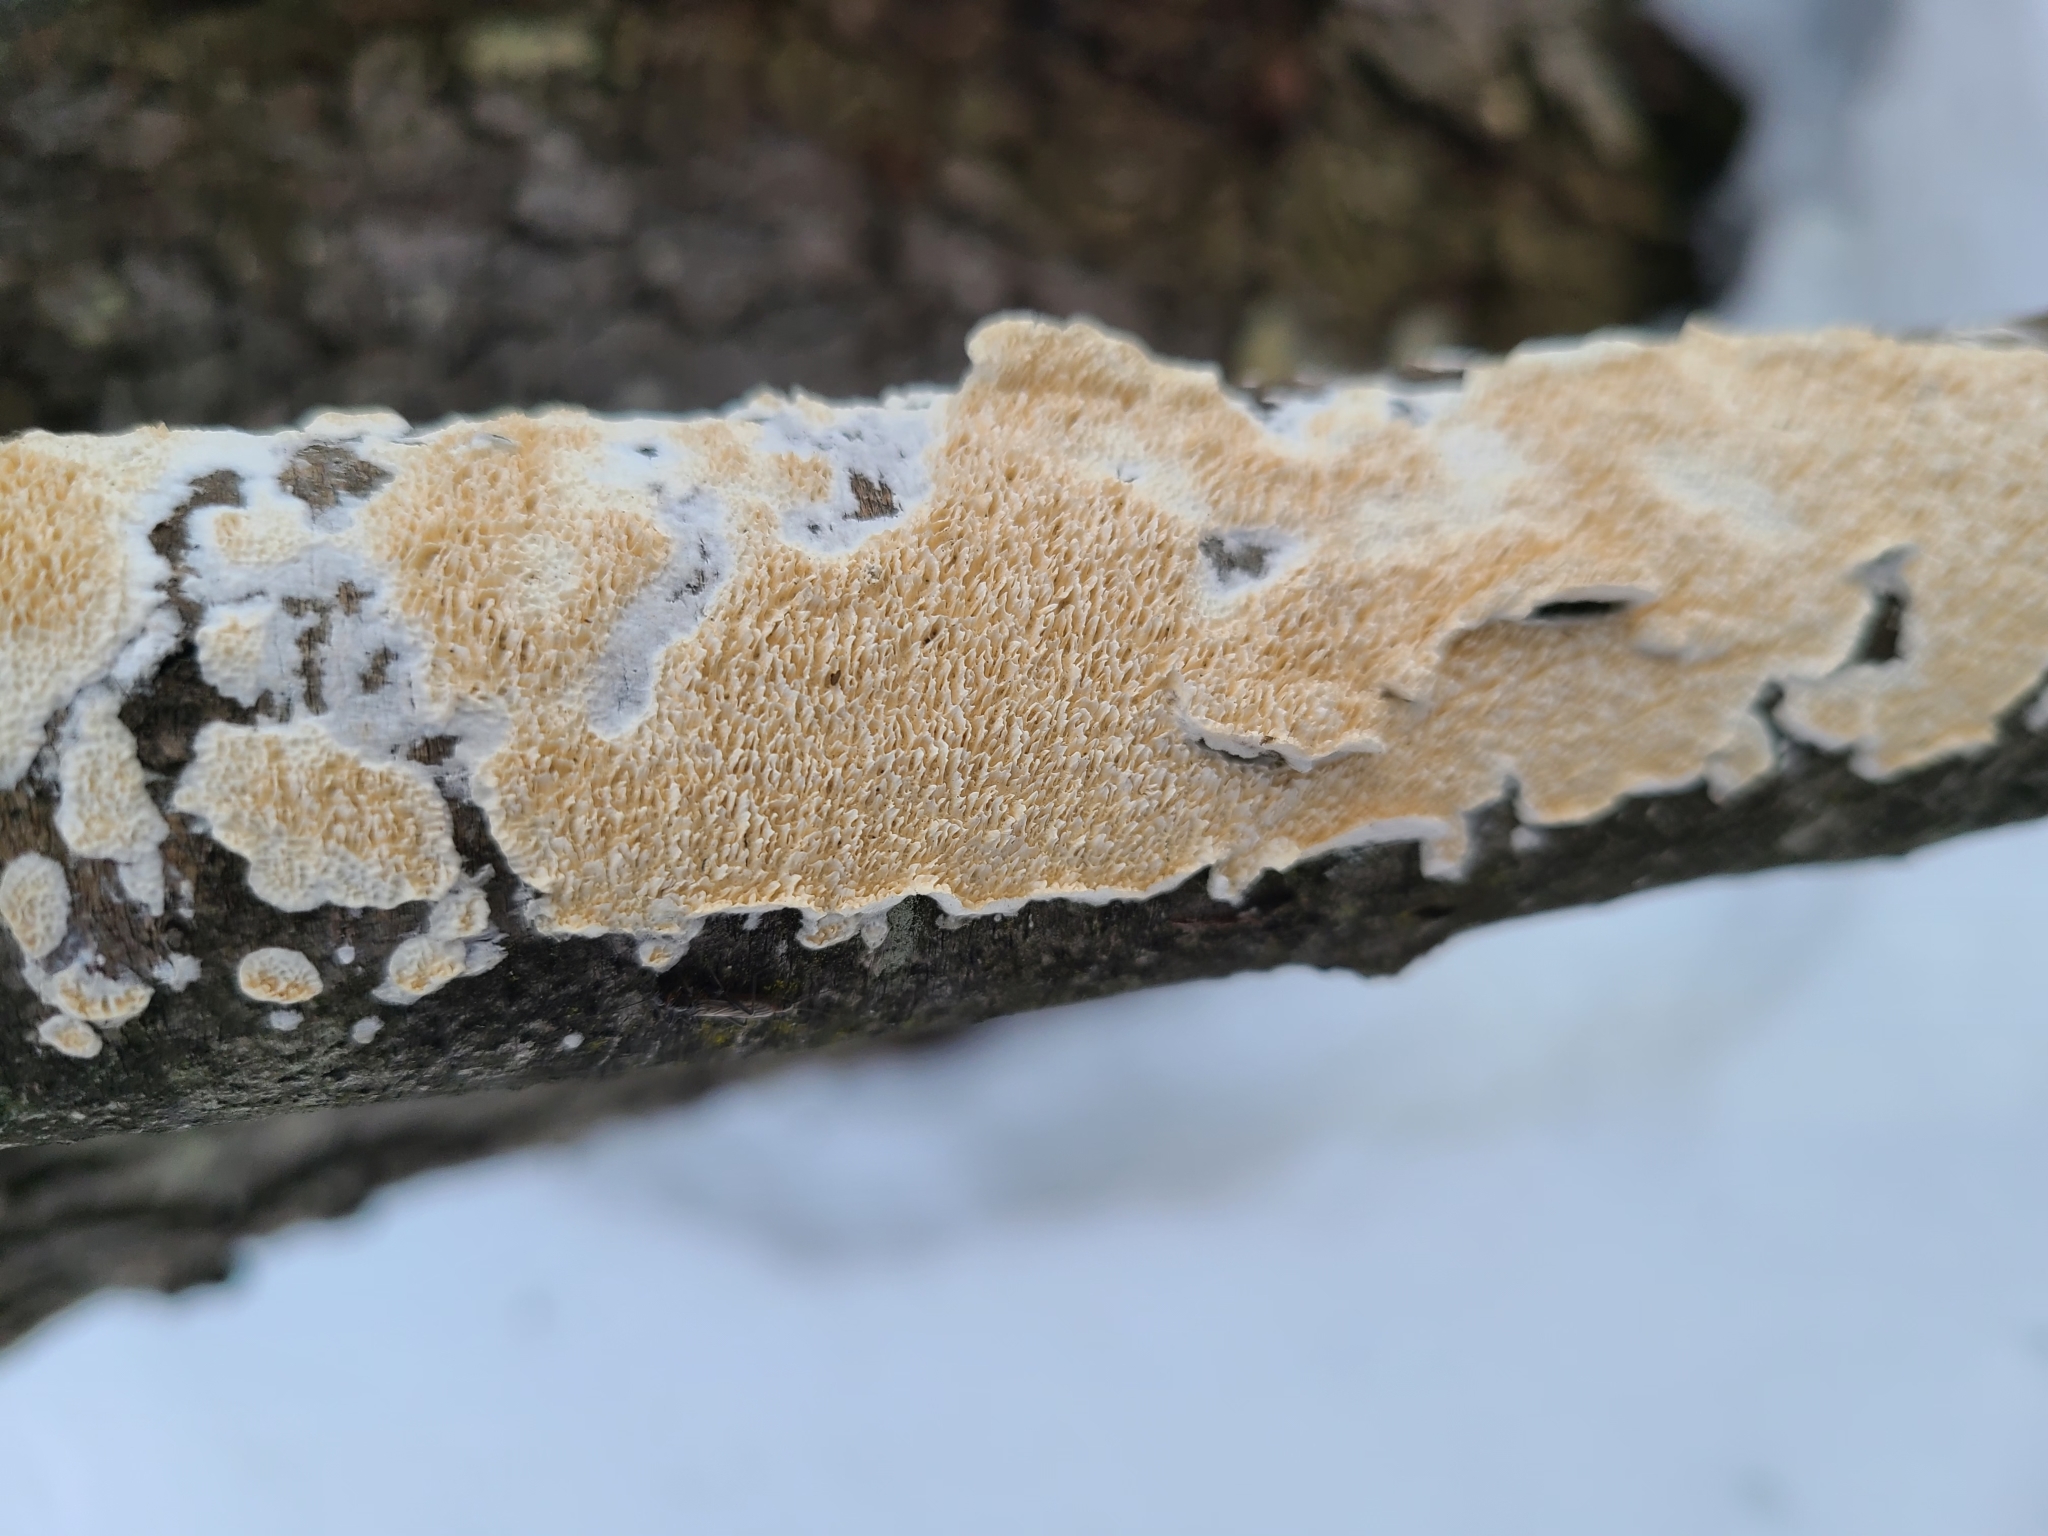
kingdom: Fungi
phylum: Basidiomycota
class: Agaricomycetes
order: Polyporales
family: Irpicaceae
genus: Irpex
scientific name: Irpex lacteus
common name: Milk-white toothed polypore
